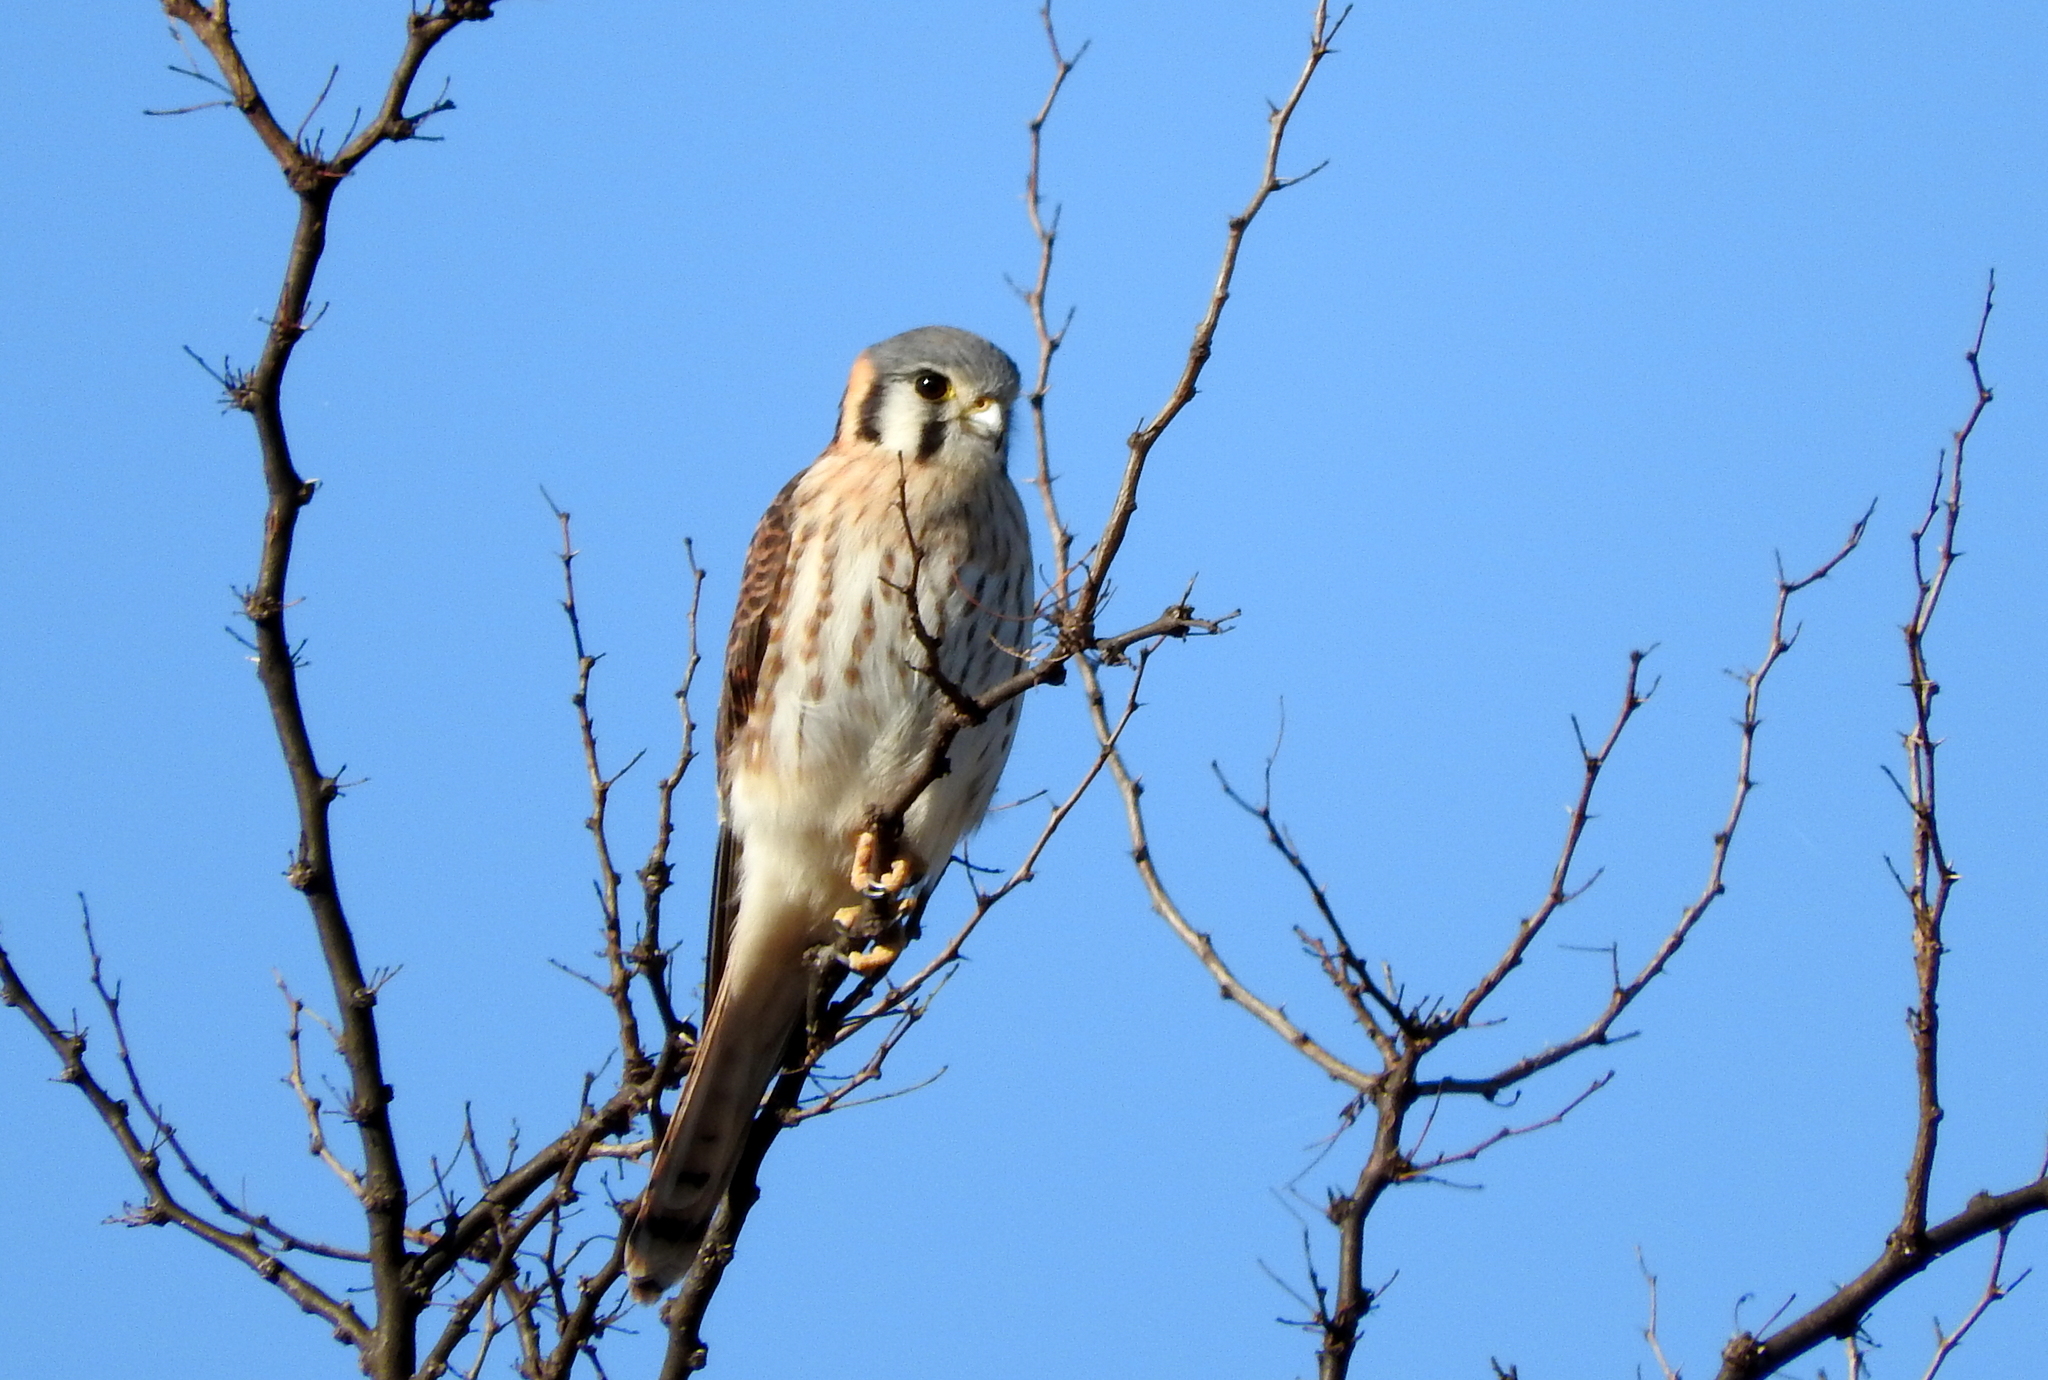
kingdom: Animalia
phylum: Chordata
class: Aves
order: Falconiformes
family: Falconidae
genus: Falco
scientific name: Falco sparverius
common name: American kestrel
